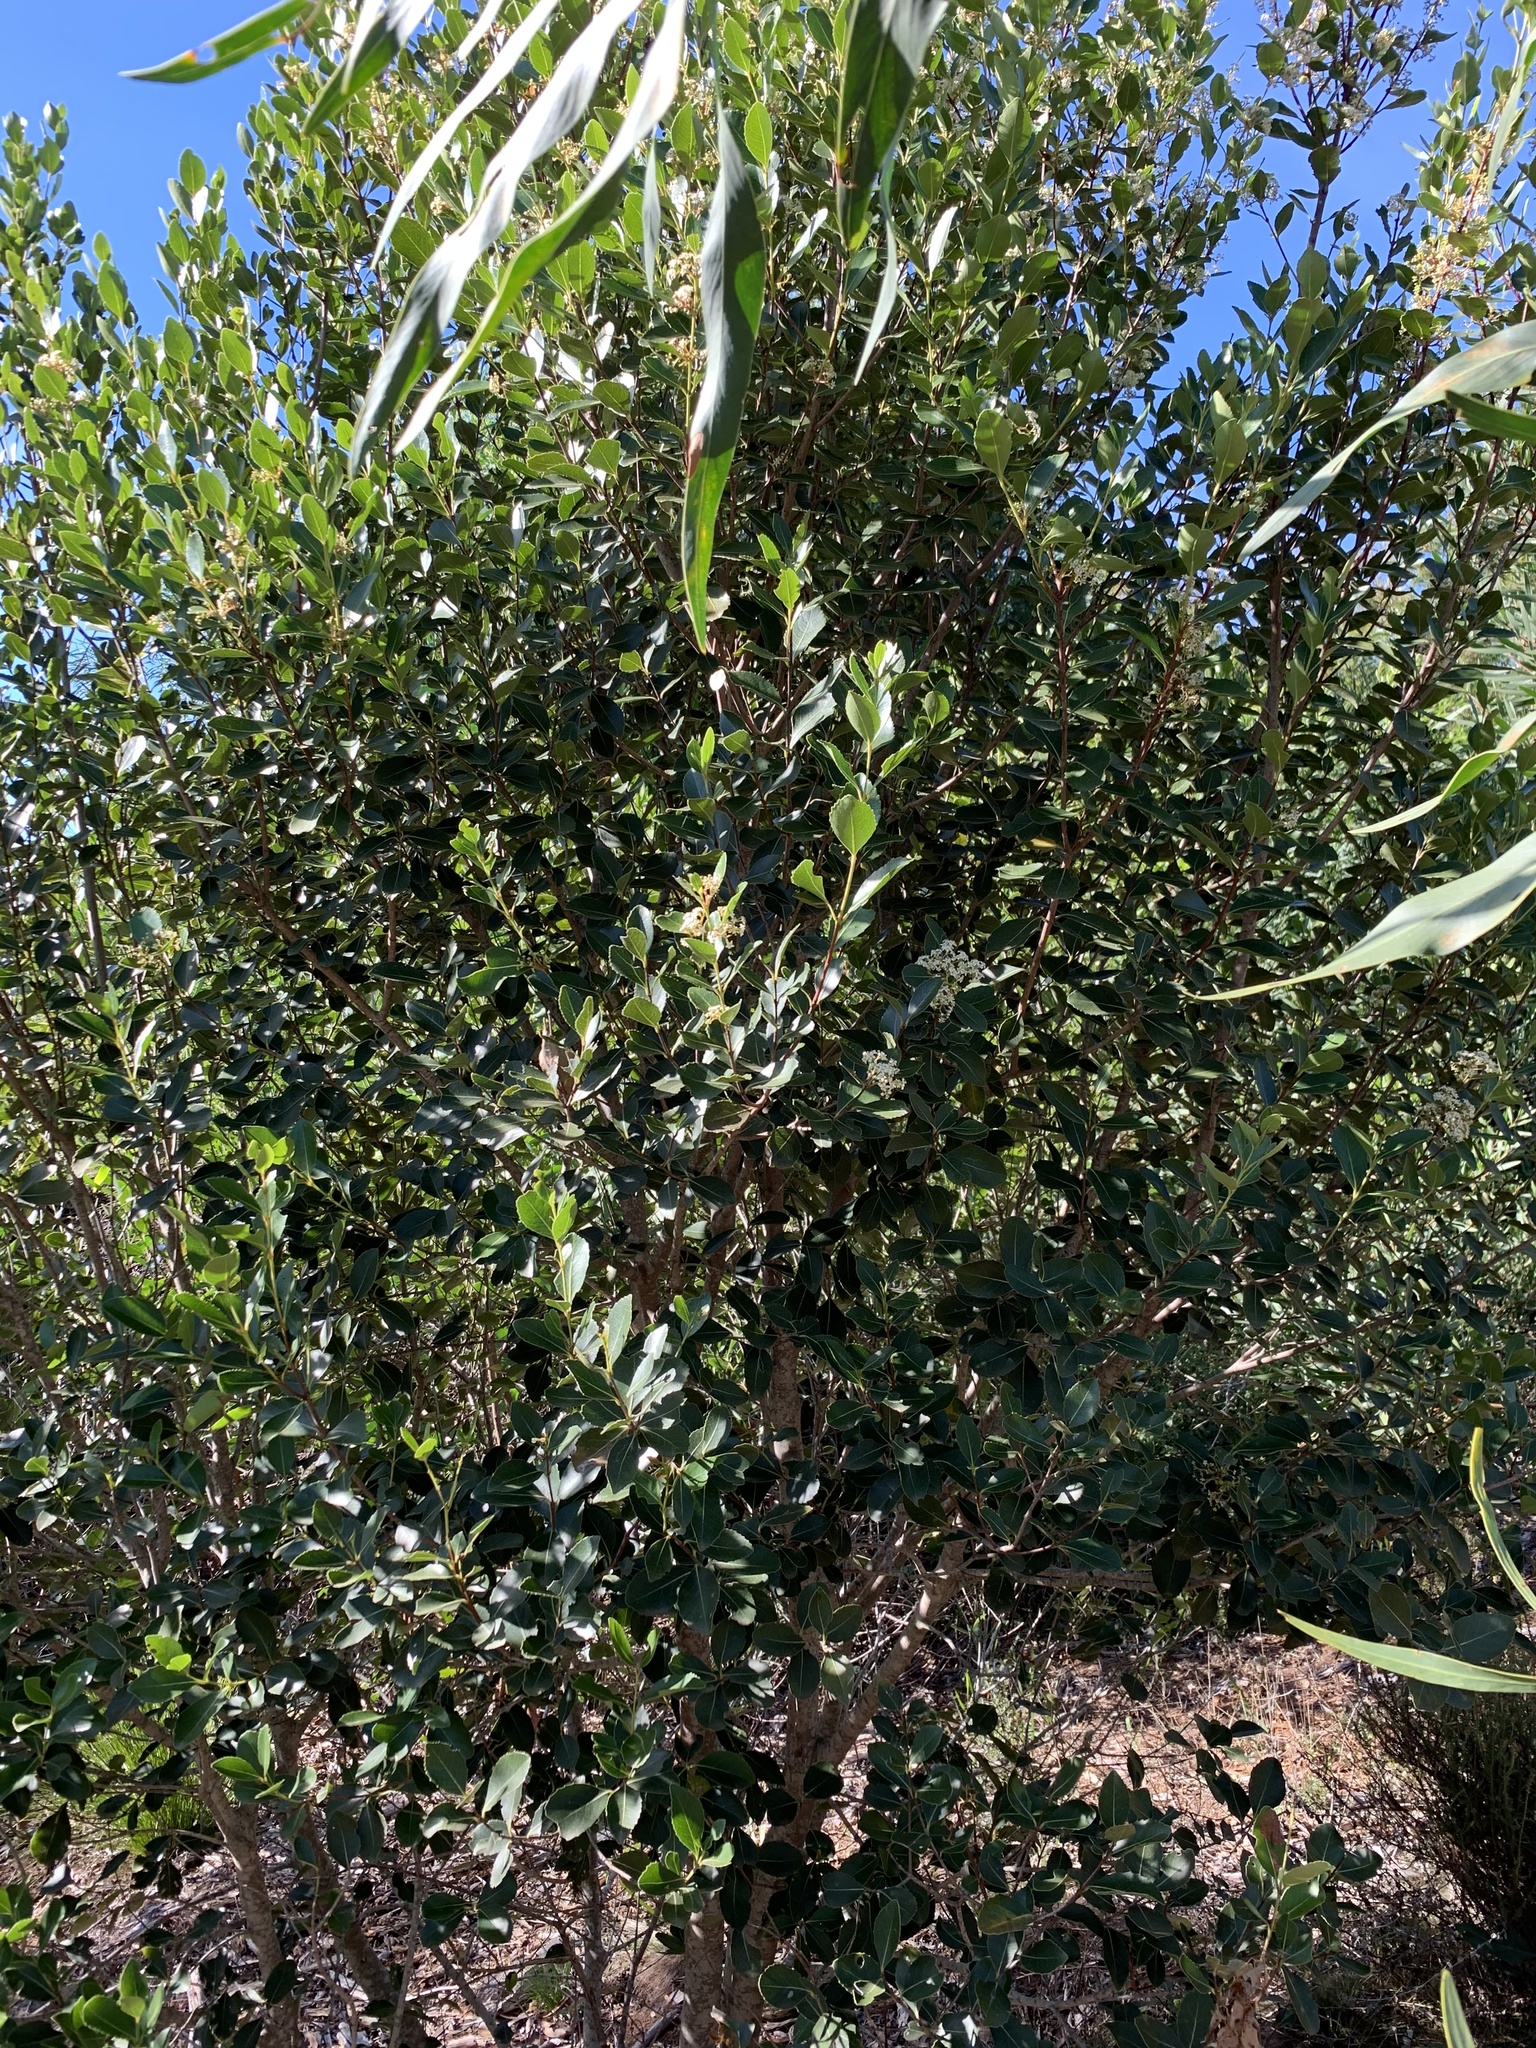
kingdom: Plantae
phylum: Tracheophyta
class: Magnoliopsida
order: Celastrales
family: Celastraceae
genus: Cassine
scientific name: Cassine peragua
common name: Cape saffron
